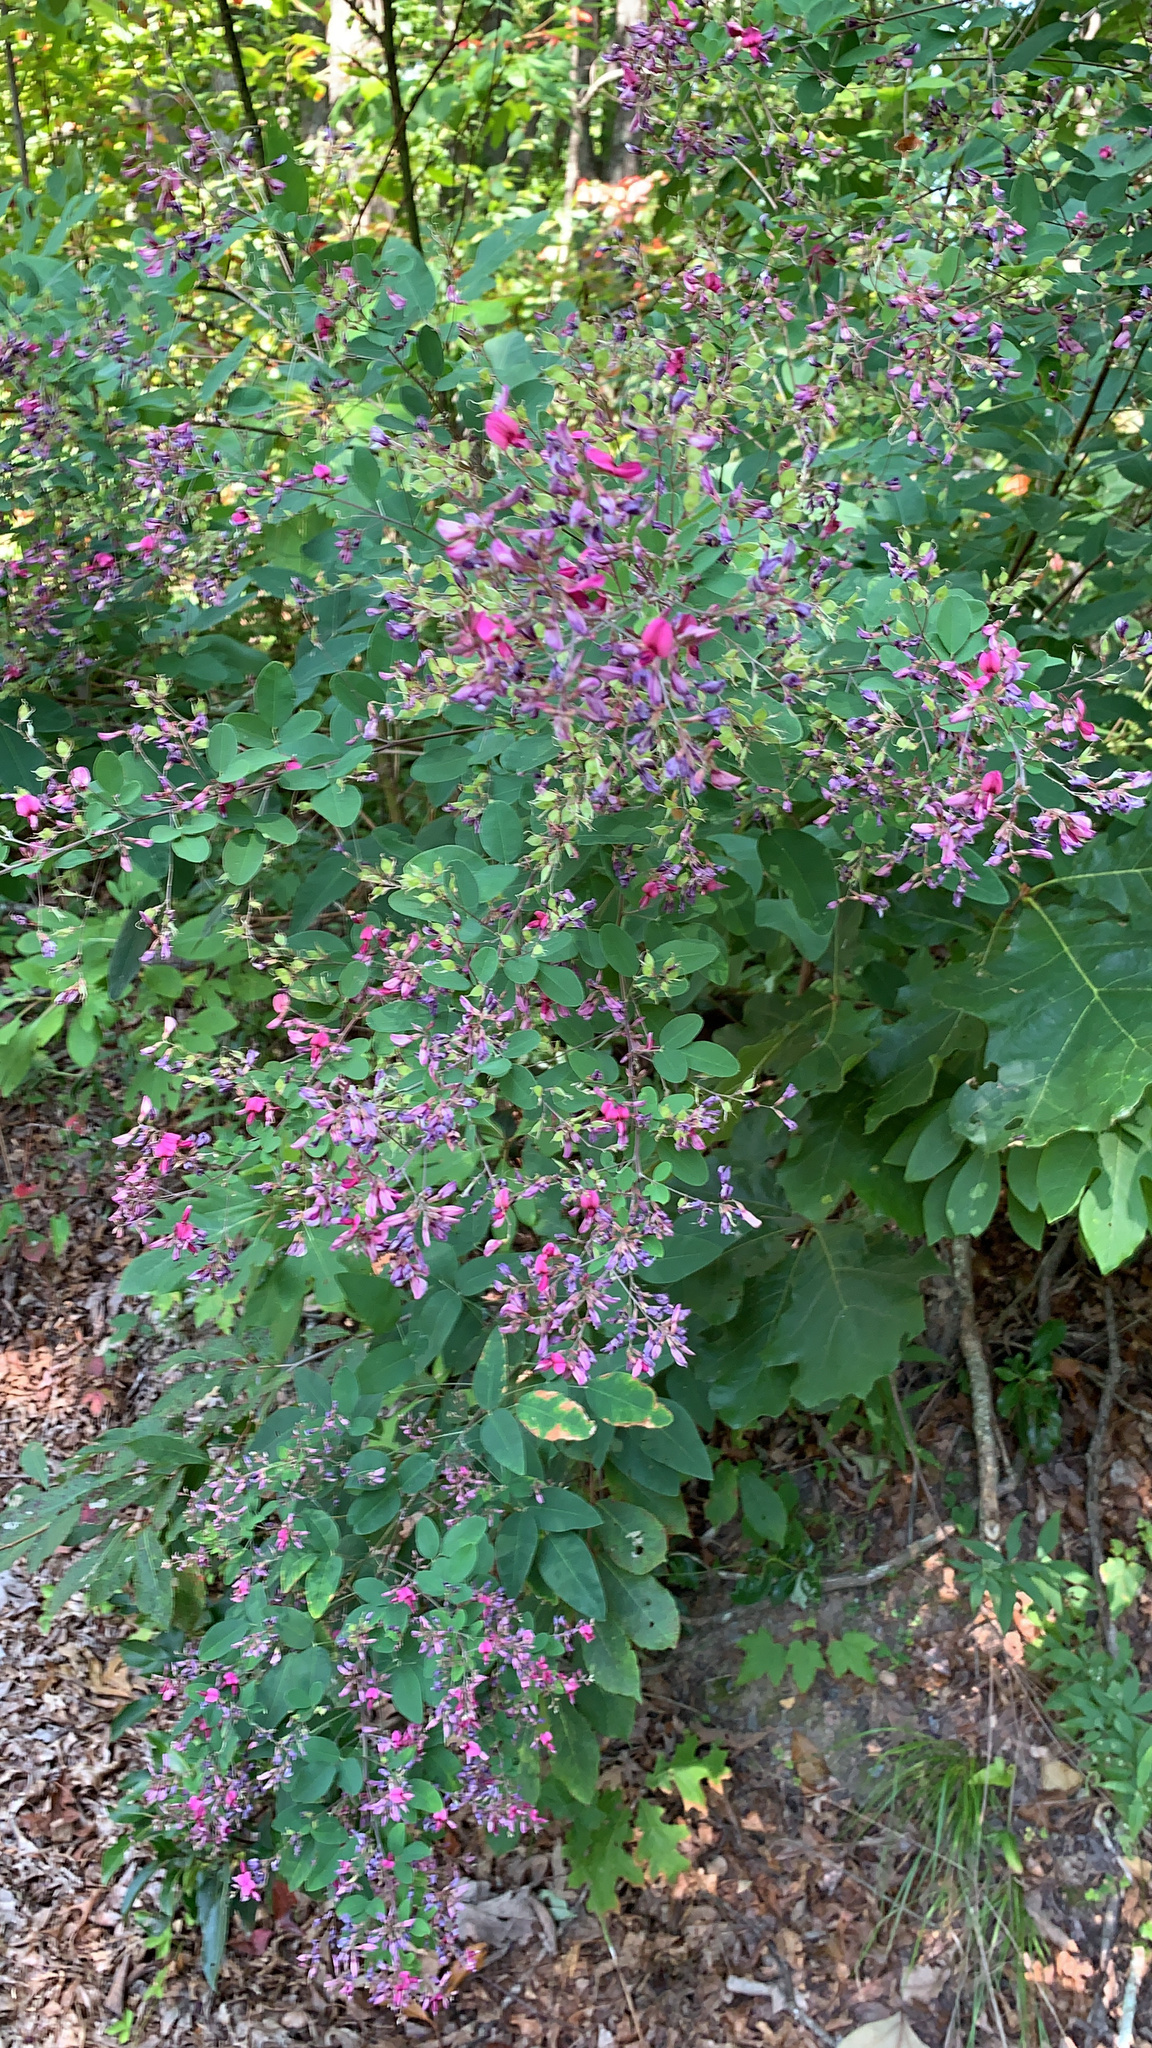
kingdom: Plantae
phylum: Tracheophyta
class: Magnoliopsida
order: Fabales
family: Fabaceae
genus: Lespedeza
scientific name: Lespedeza bicolor
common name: Shrub lespedeza
